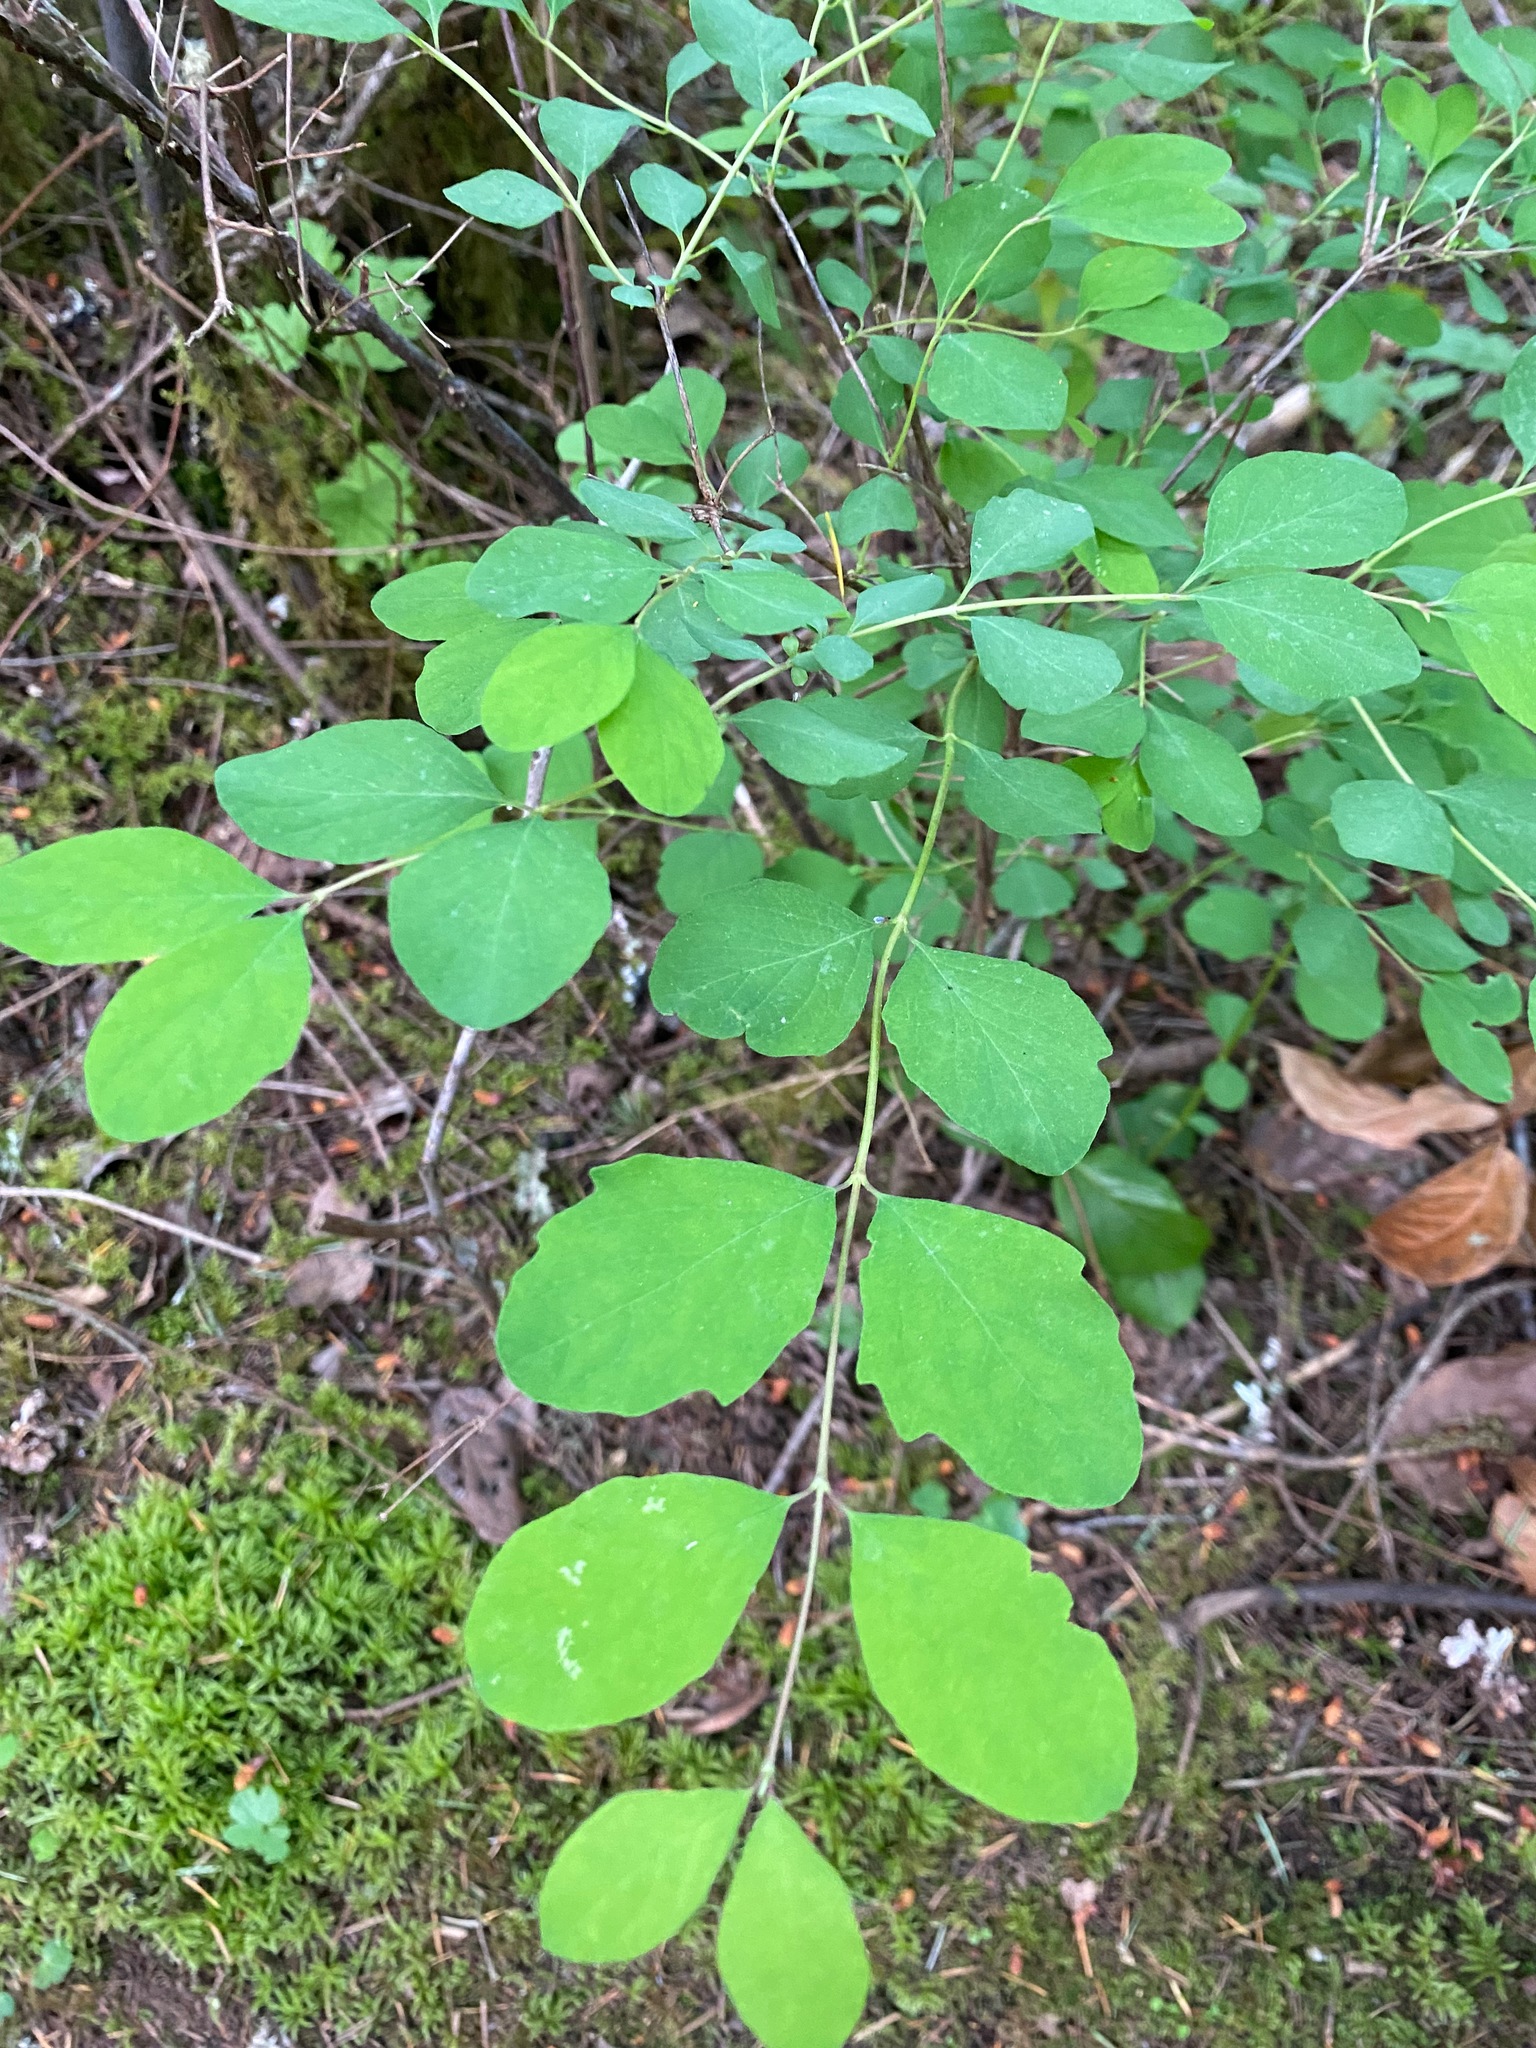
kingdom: Plantae
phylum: Tracheophyta
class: Magnoliopsida
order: Dipsacales
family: Caprifoliaceae
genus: Symphoricarpos
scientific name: Symphoricarpos albus
